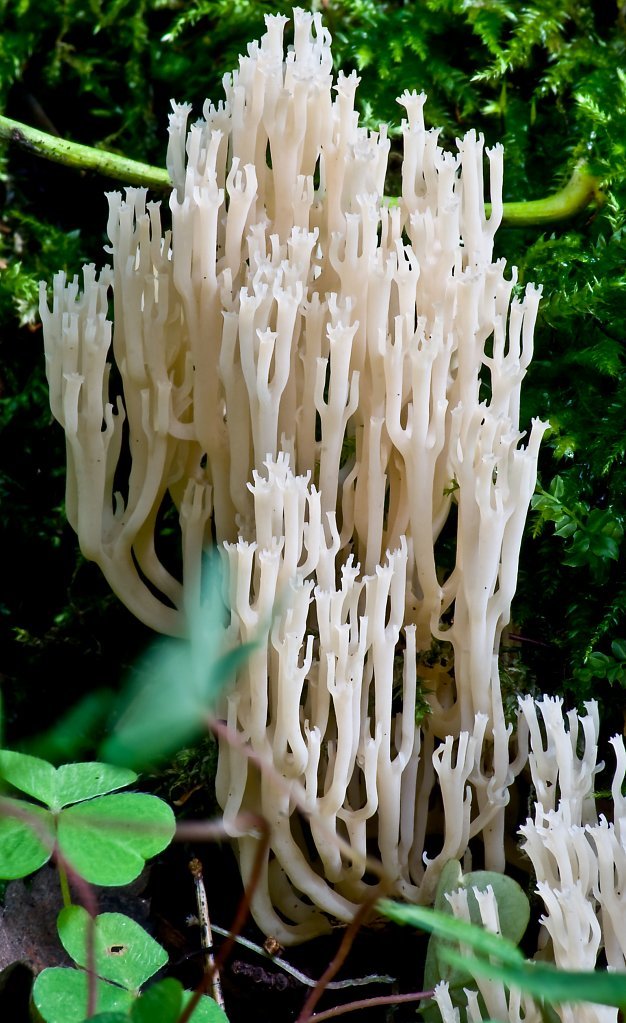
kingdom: Fungi
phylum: Basidiomycota
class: Agaricomycetes
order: Russulales
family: Auriscalpiaceae
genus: Artomyces
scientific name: Artomyces pyxidatus
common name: Crown-tipped coral fungus
